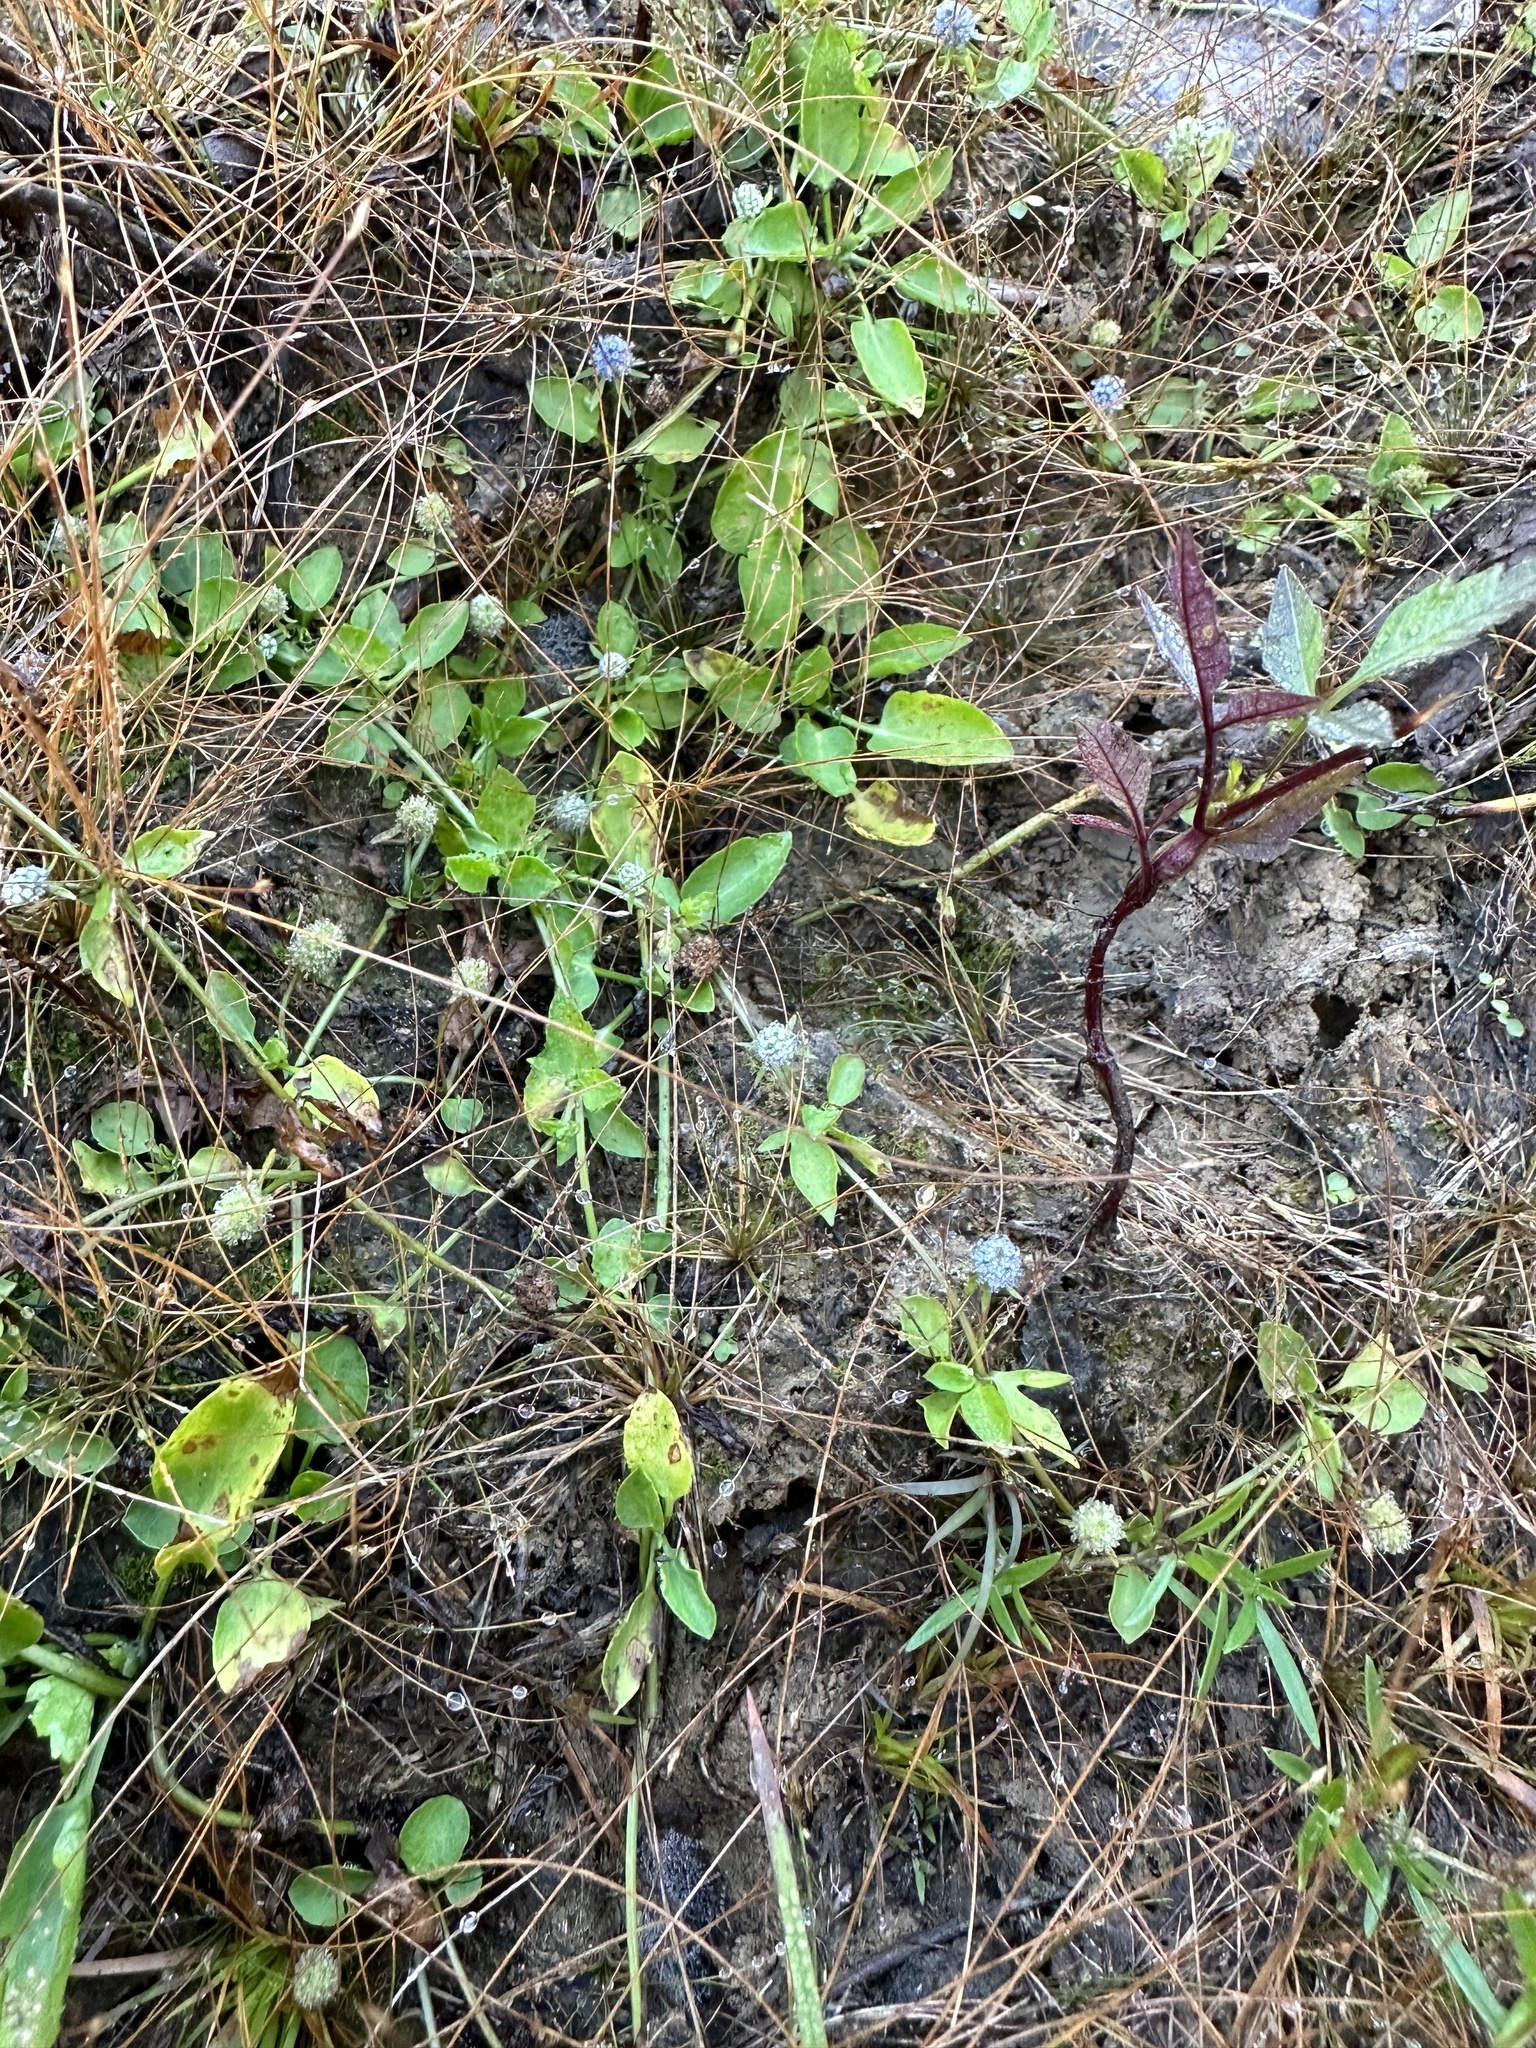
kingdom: Plantae
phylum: Tracheophyta
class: Magnoliopsida
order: Apiales
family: Apiaceae
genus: Eryngium
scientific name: Eryngium prostratum
